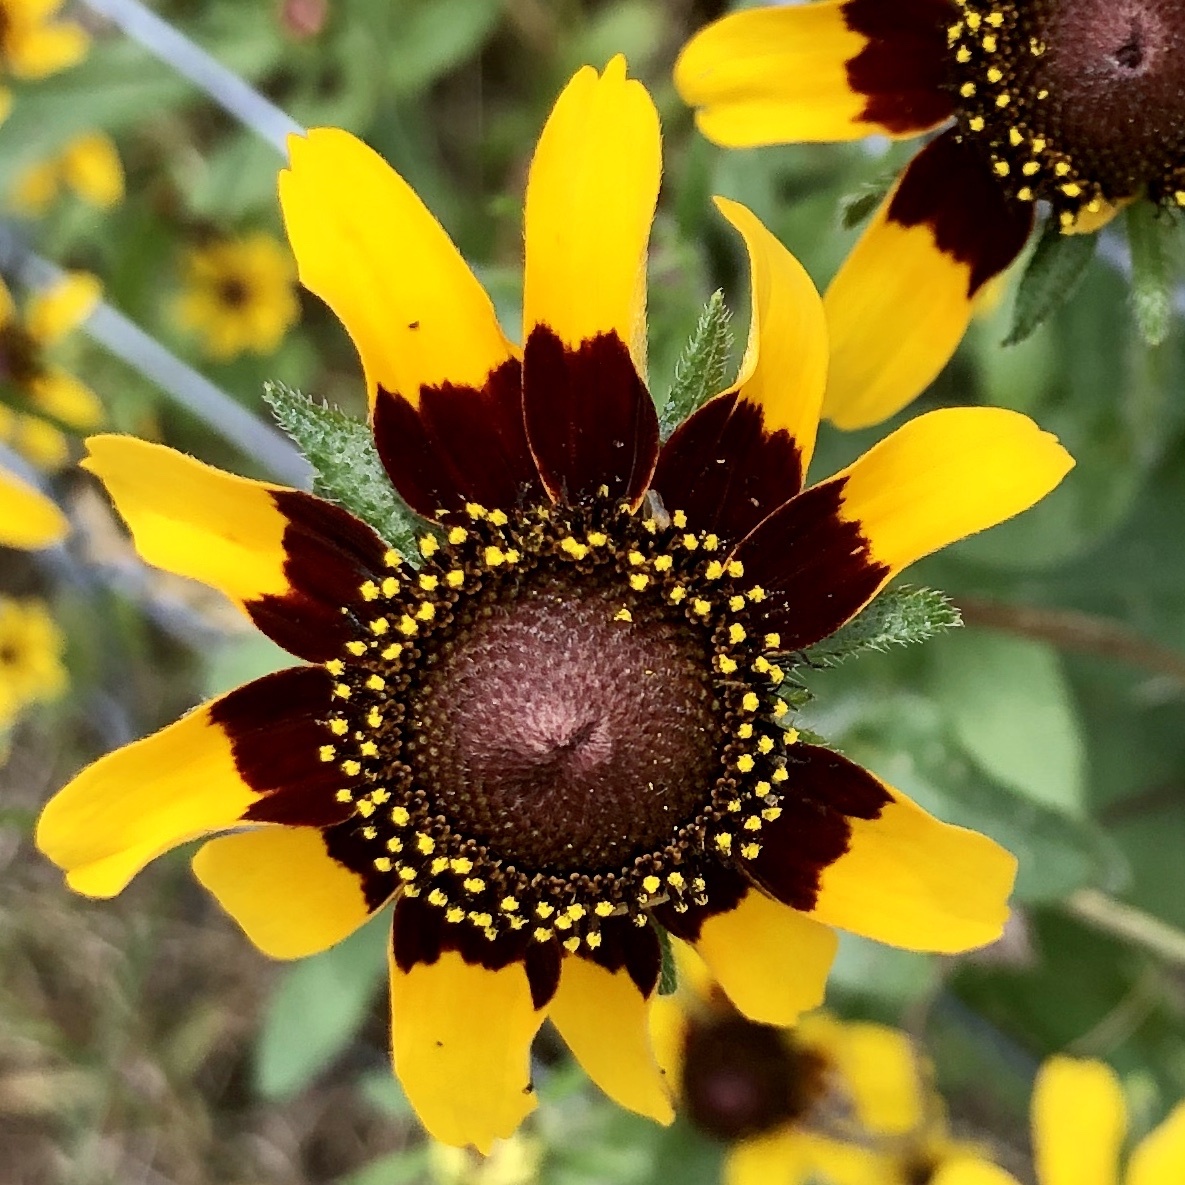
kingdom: Plantae
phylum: Tracheophyta
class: Magnoliopsida
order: Asterales
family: Asteraceae
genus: Rudbeckia
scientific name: Rudbeckia hirta
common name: Black-eyed-susan
